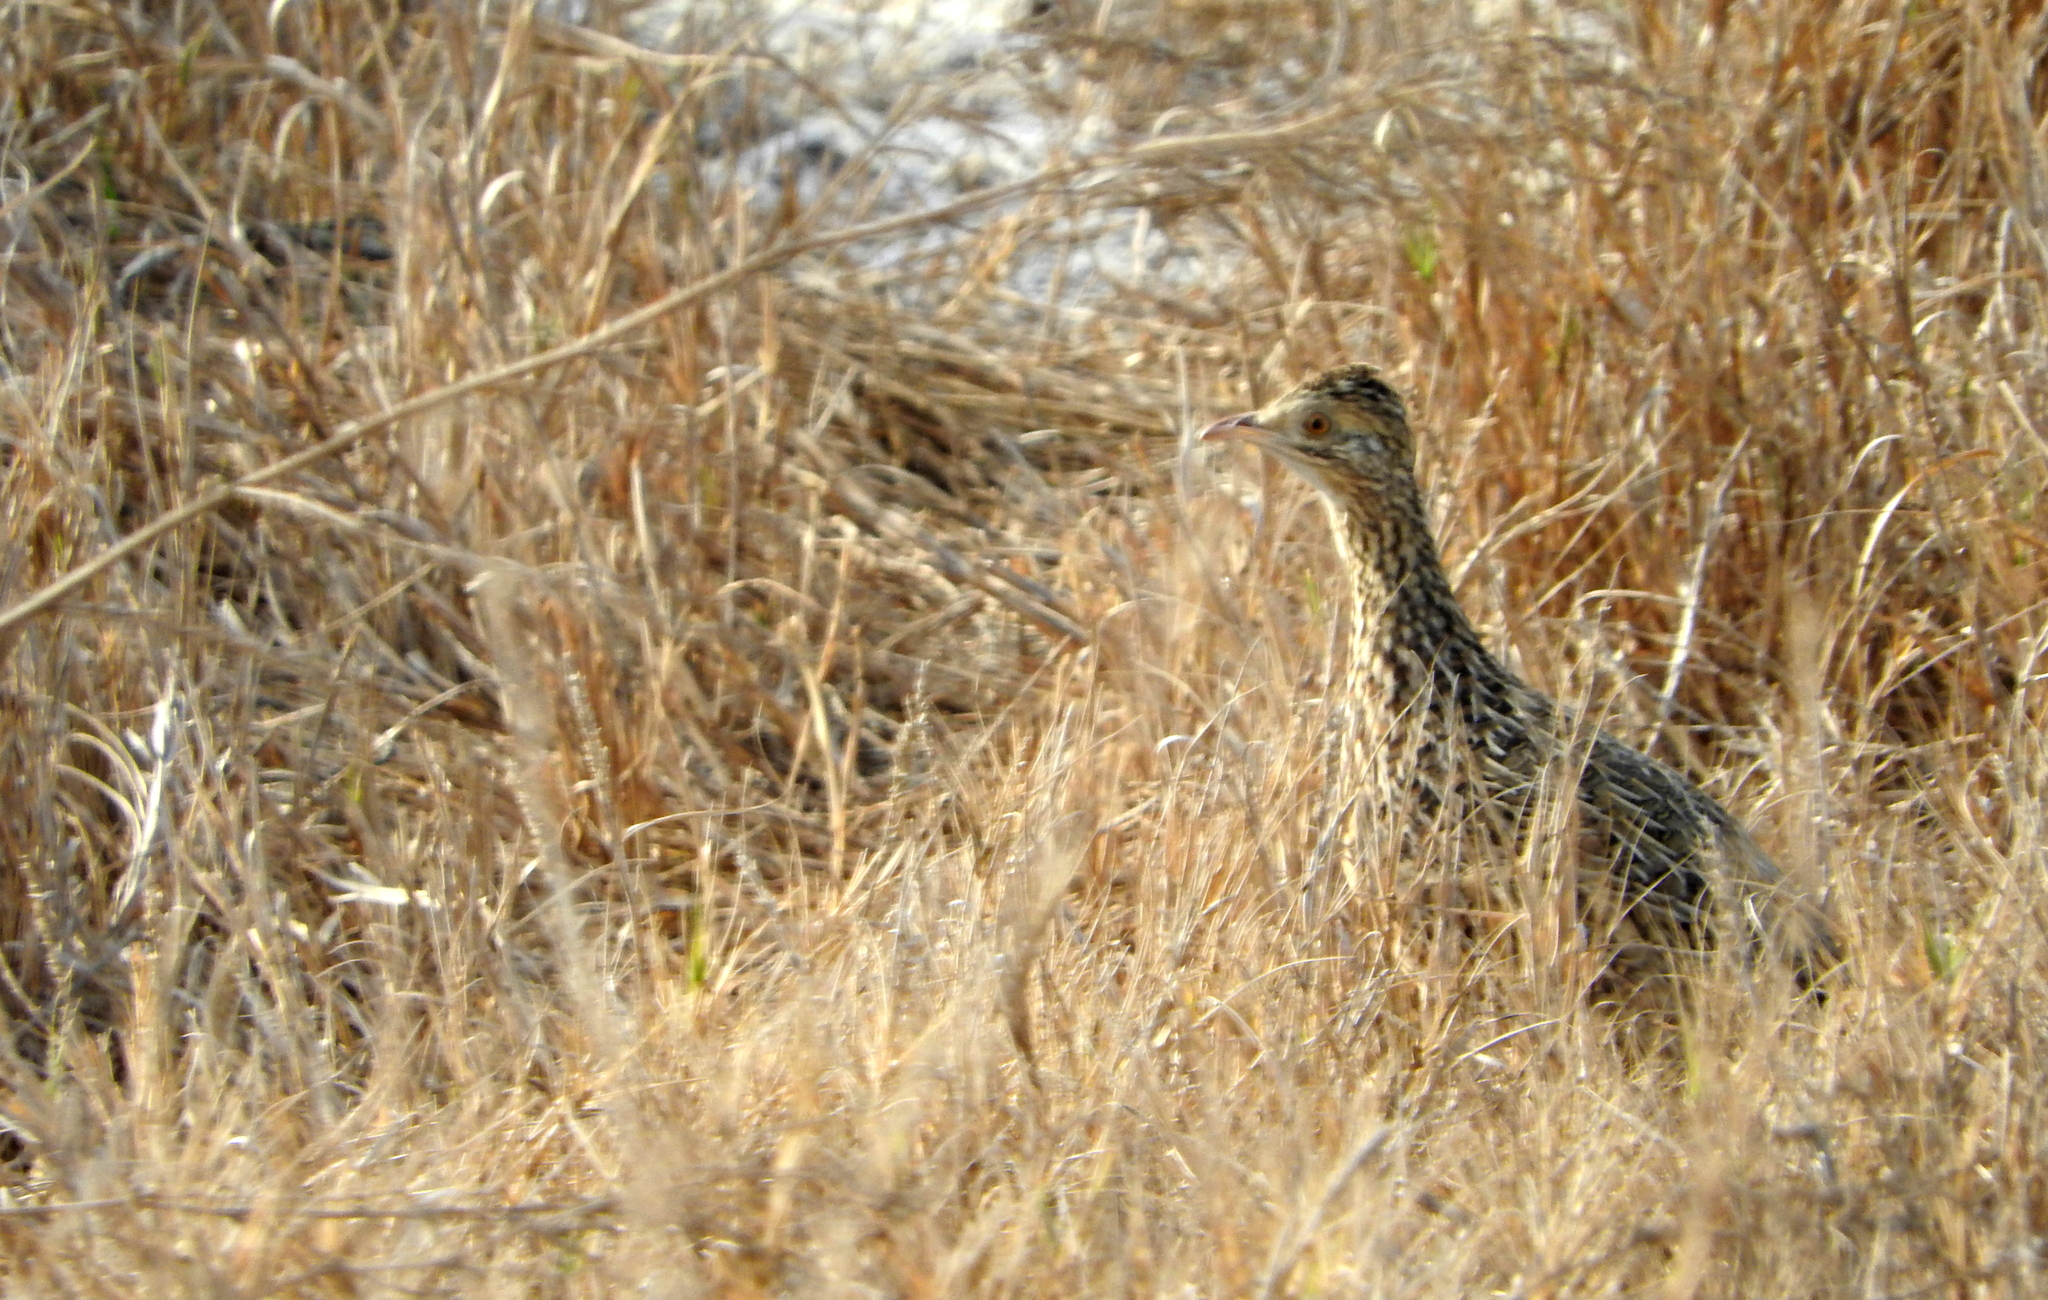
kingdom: Animalia
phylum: Chordata
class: Aves
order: Tinamiformes
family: Tinamidae
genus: Nothura
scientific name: Nothura maculosa
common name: Spotted nothura
